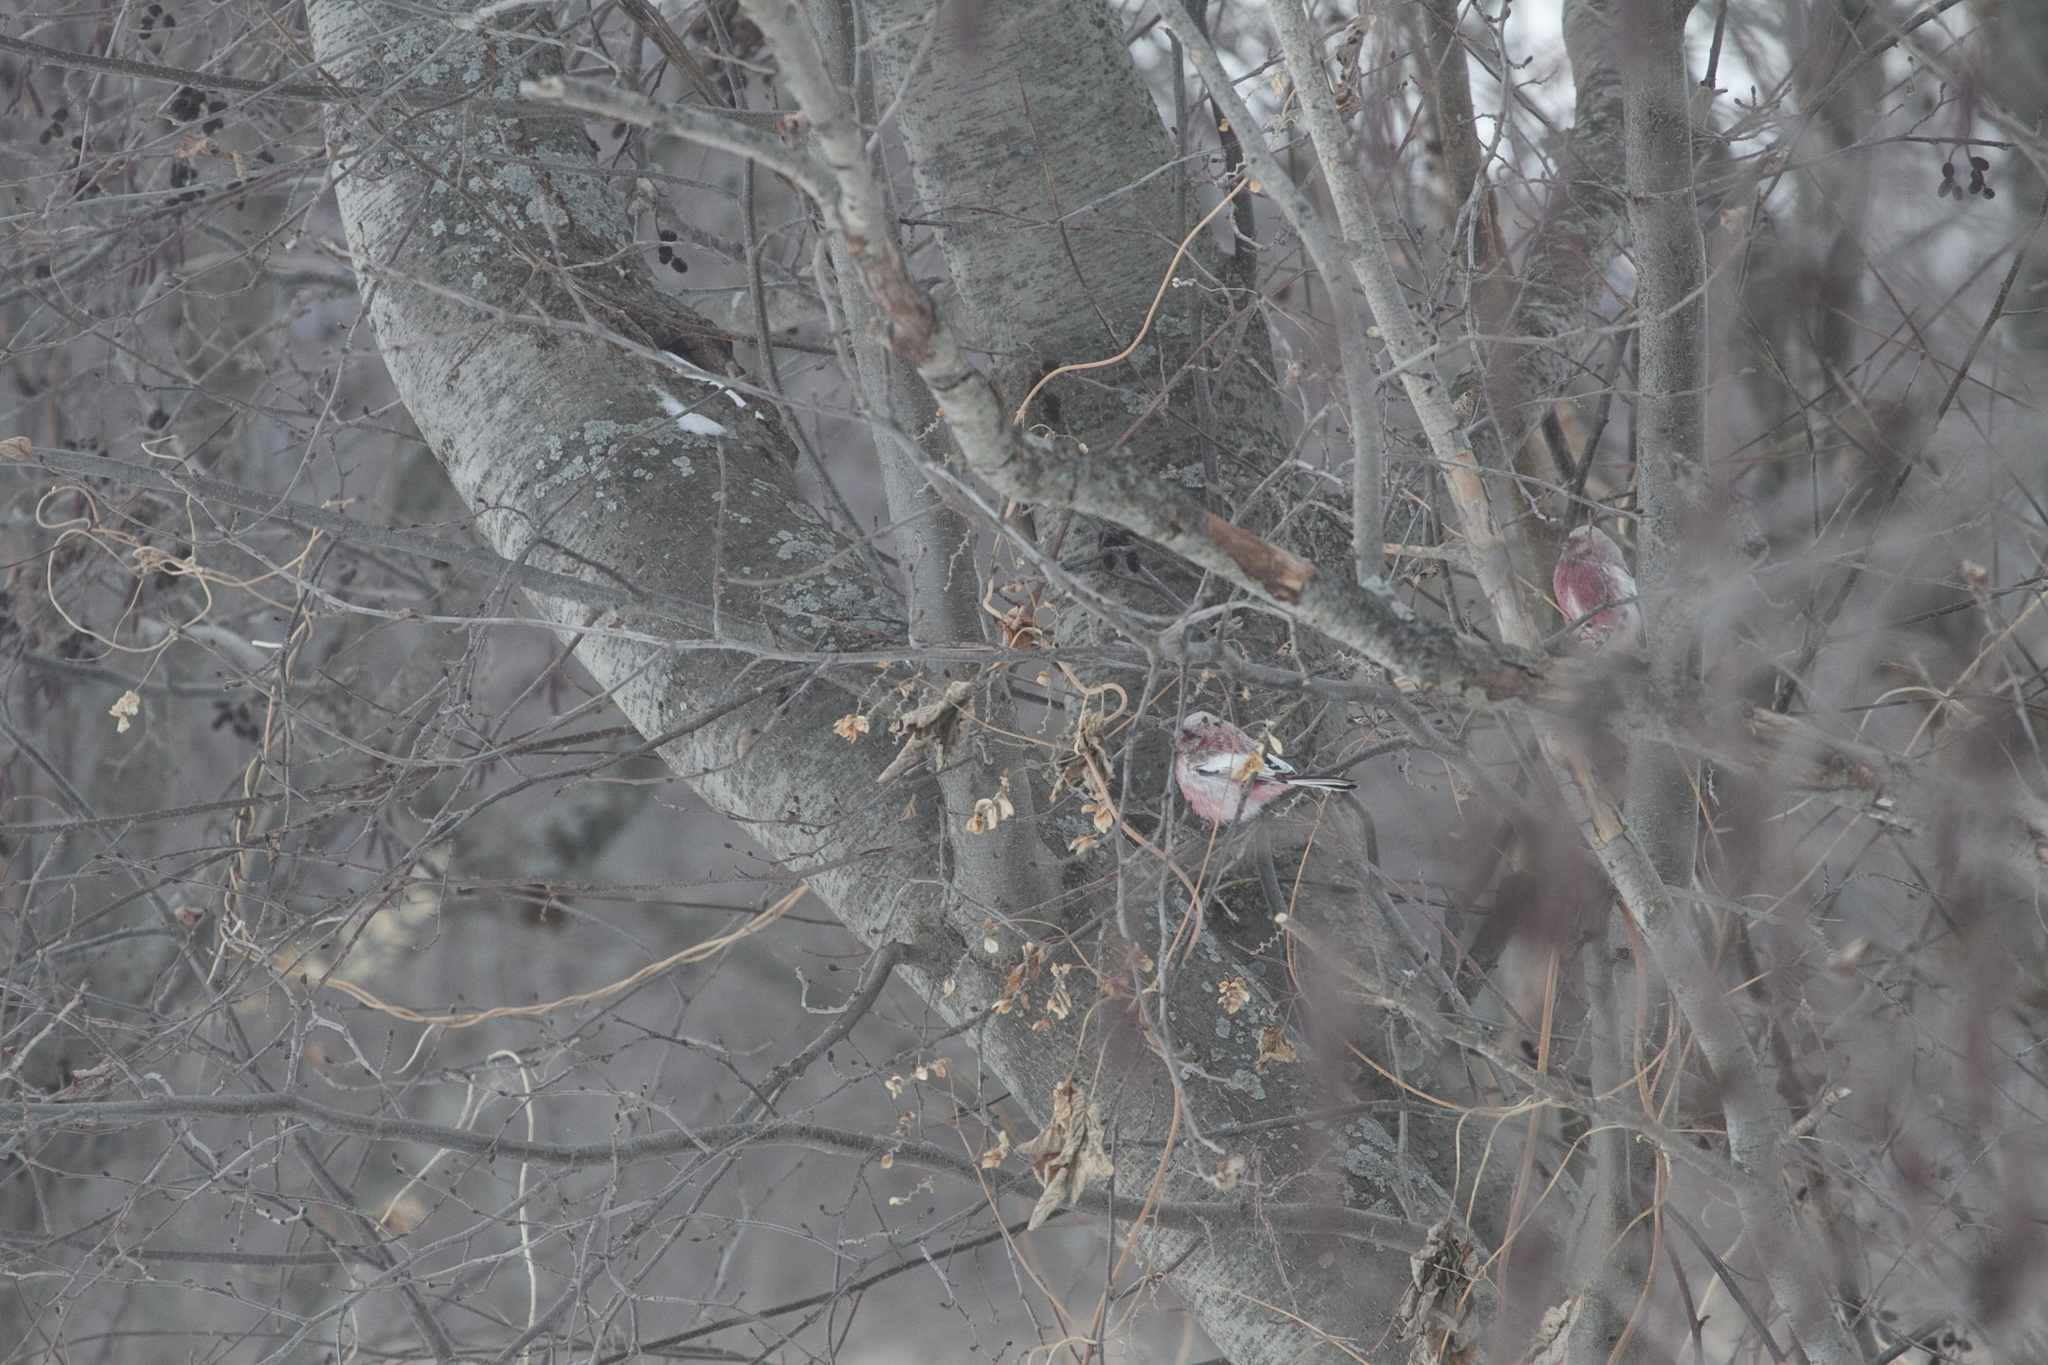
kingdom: Animalia
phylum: Chordata
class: Aves
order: Passeriformes
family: Fringillidae
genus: Carpodacus
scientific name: Carpodacus sibiricus
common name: Long-tailed rosefinch
